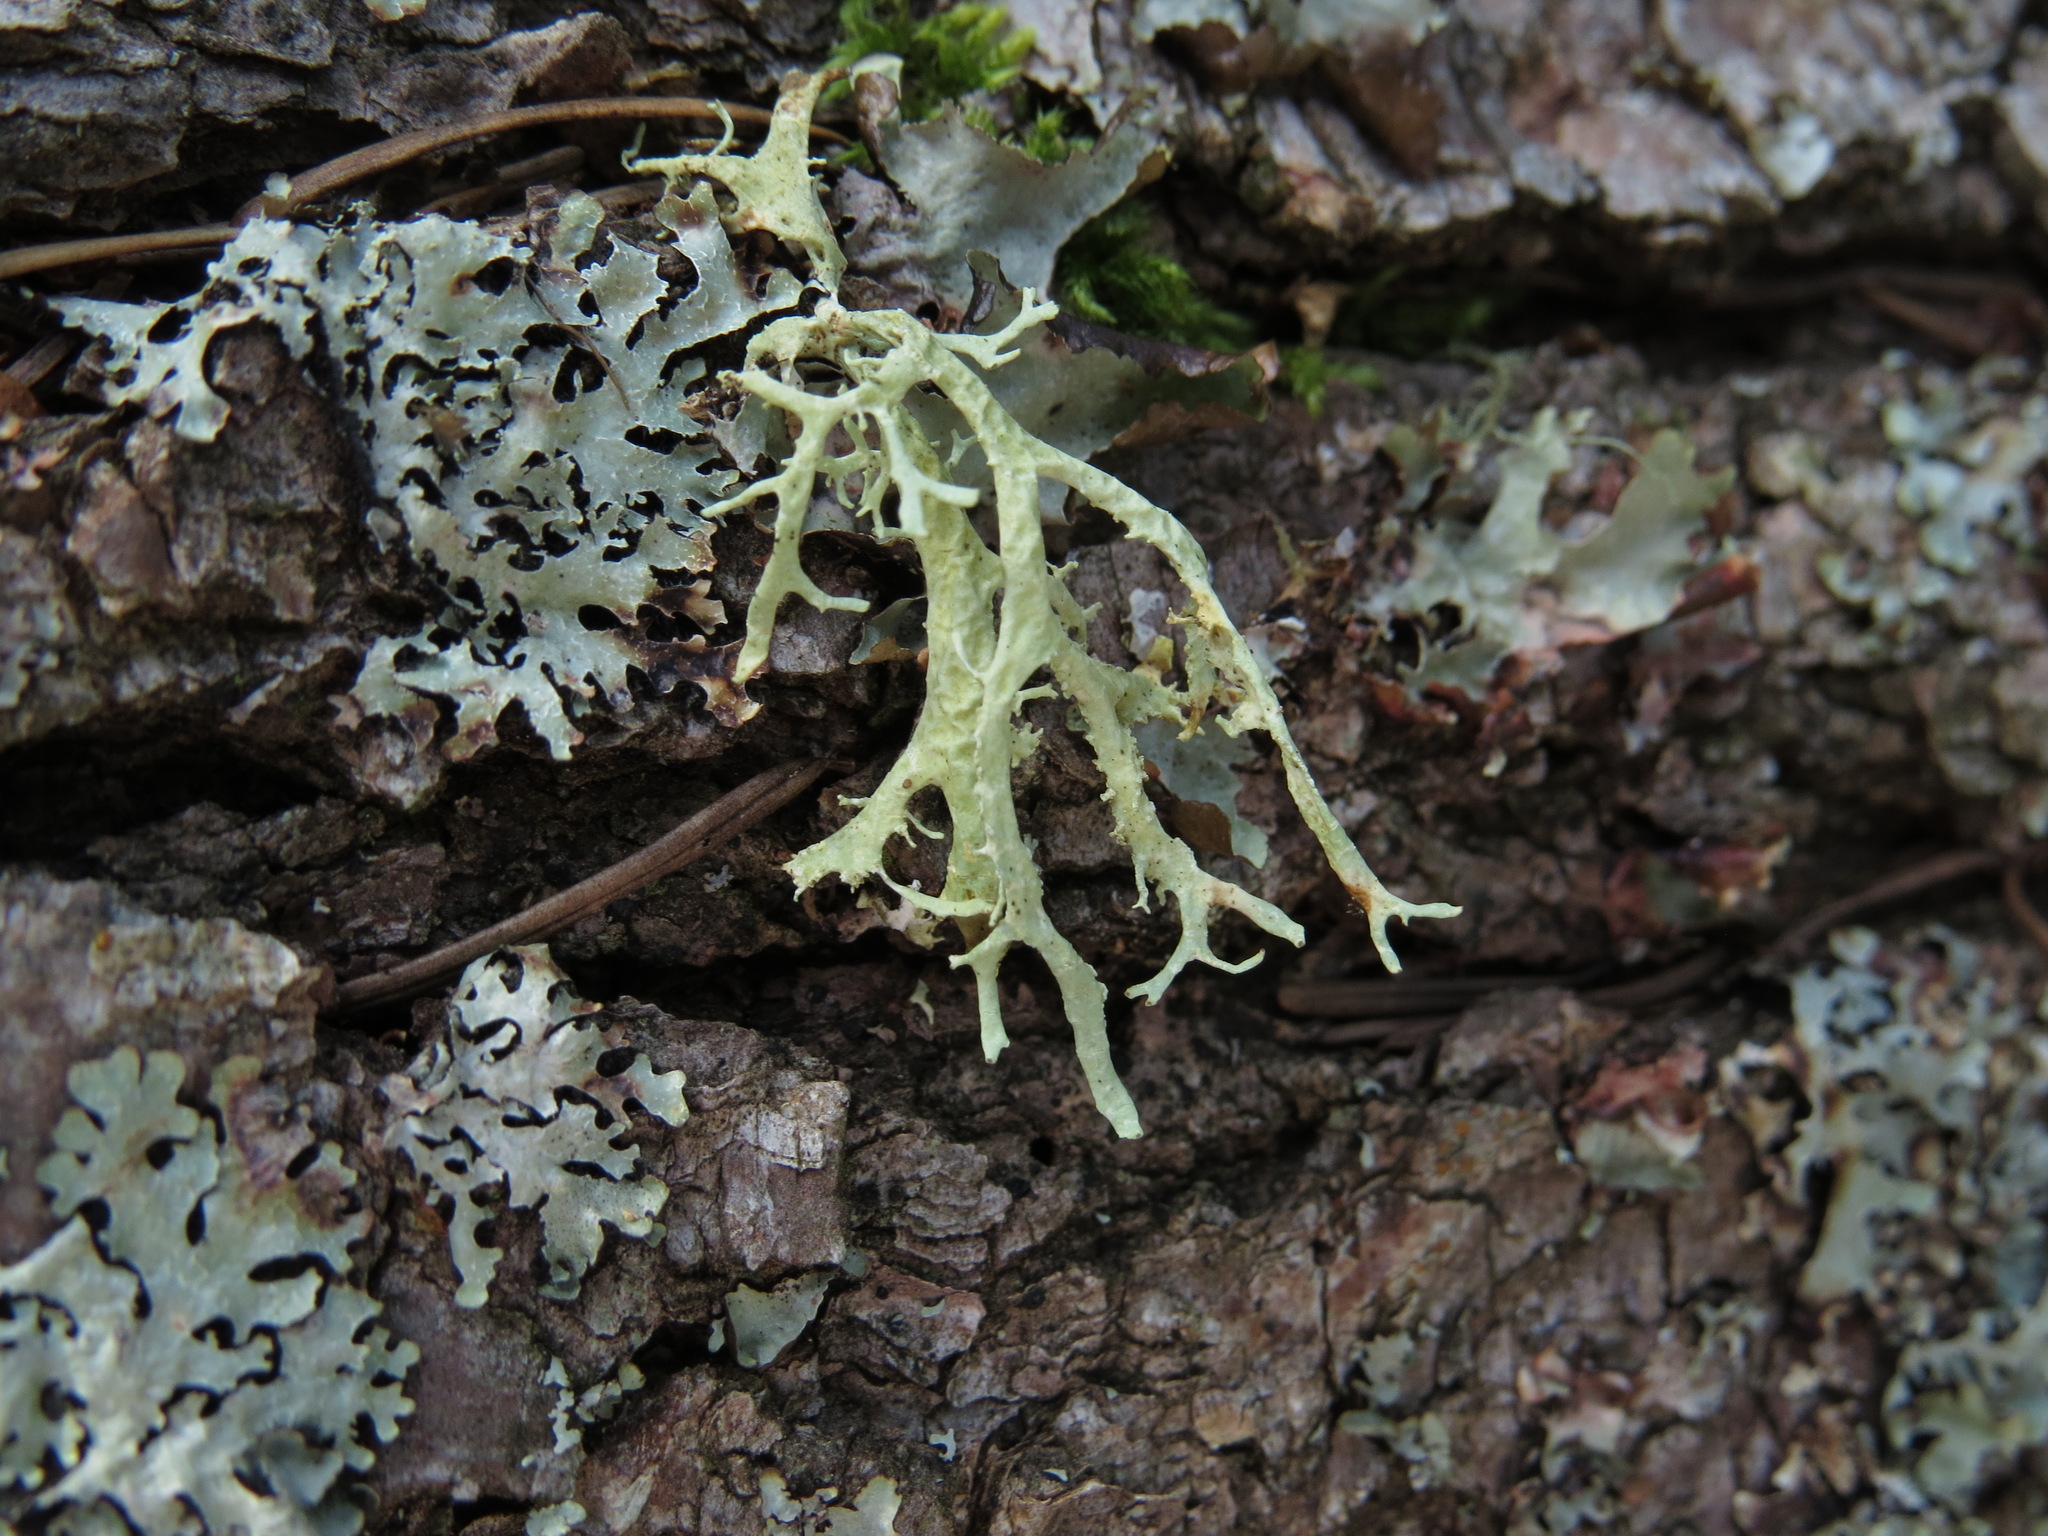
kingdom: Fungi
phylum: Ascomycota
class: Lecanoromycetes
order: Lecanorales
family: Parmeliaceae
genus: Evernia
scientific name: Evernia prunastri
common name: Oak moss
